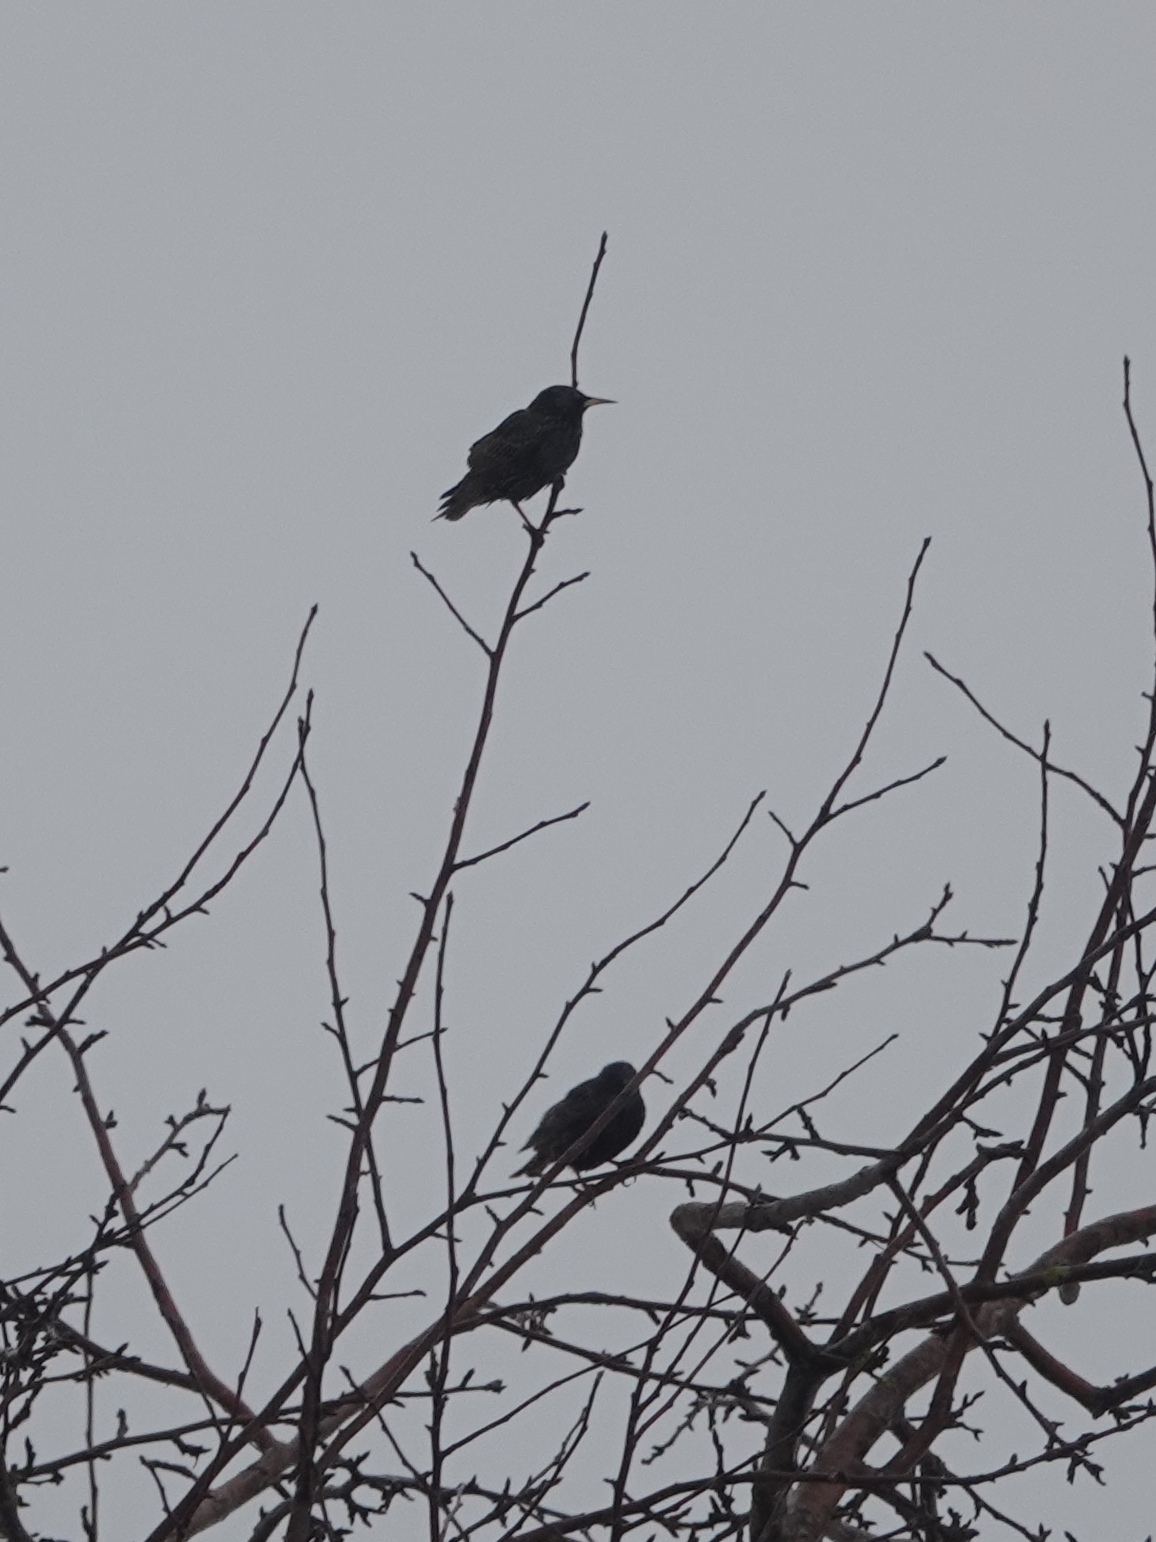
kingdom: Animalia
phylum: Chordata
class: Aves
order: Passeriformes
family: Sturnidae
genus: Sturnus
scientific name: Sturnus vulgaris
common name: Common starling
